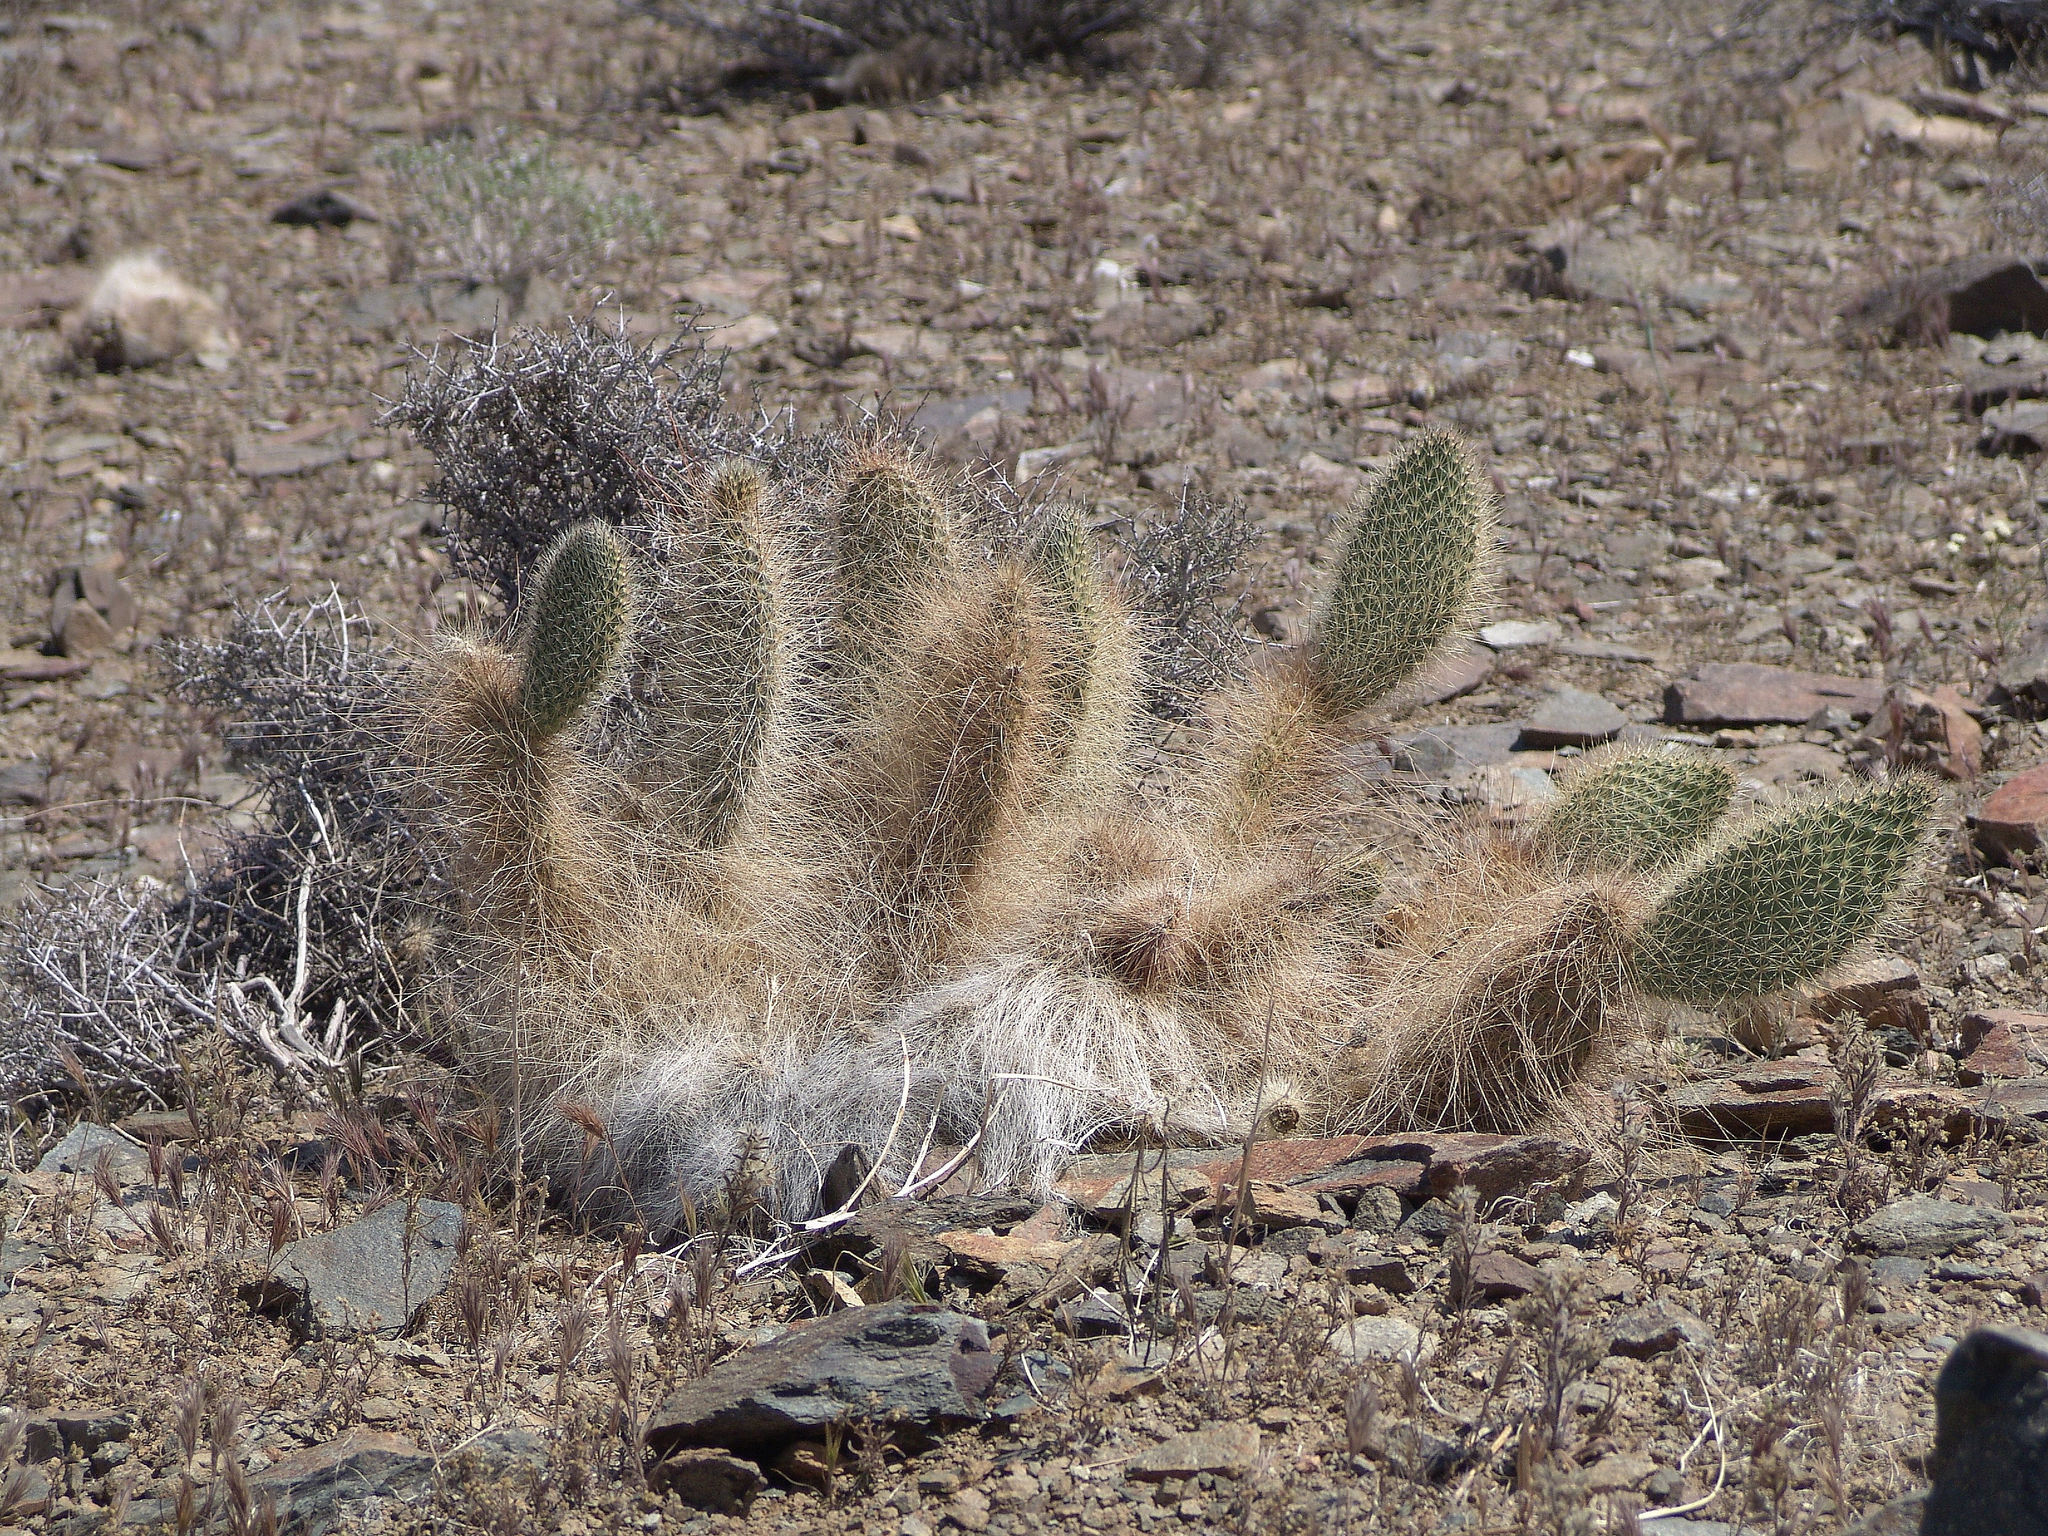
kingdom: Plantae
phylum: Tracheophyta
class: Magnoliopsida
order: Caryophyllales
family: Cactaceae
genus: Opuntia
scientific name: Opuntia polyacantha
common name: Plains prickly-pear
